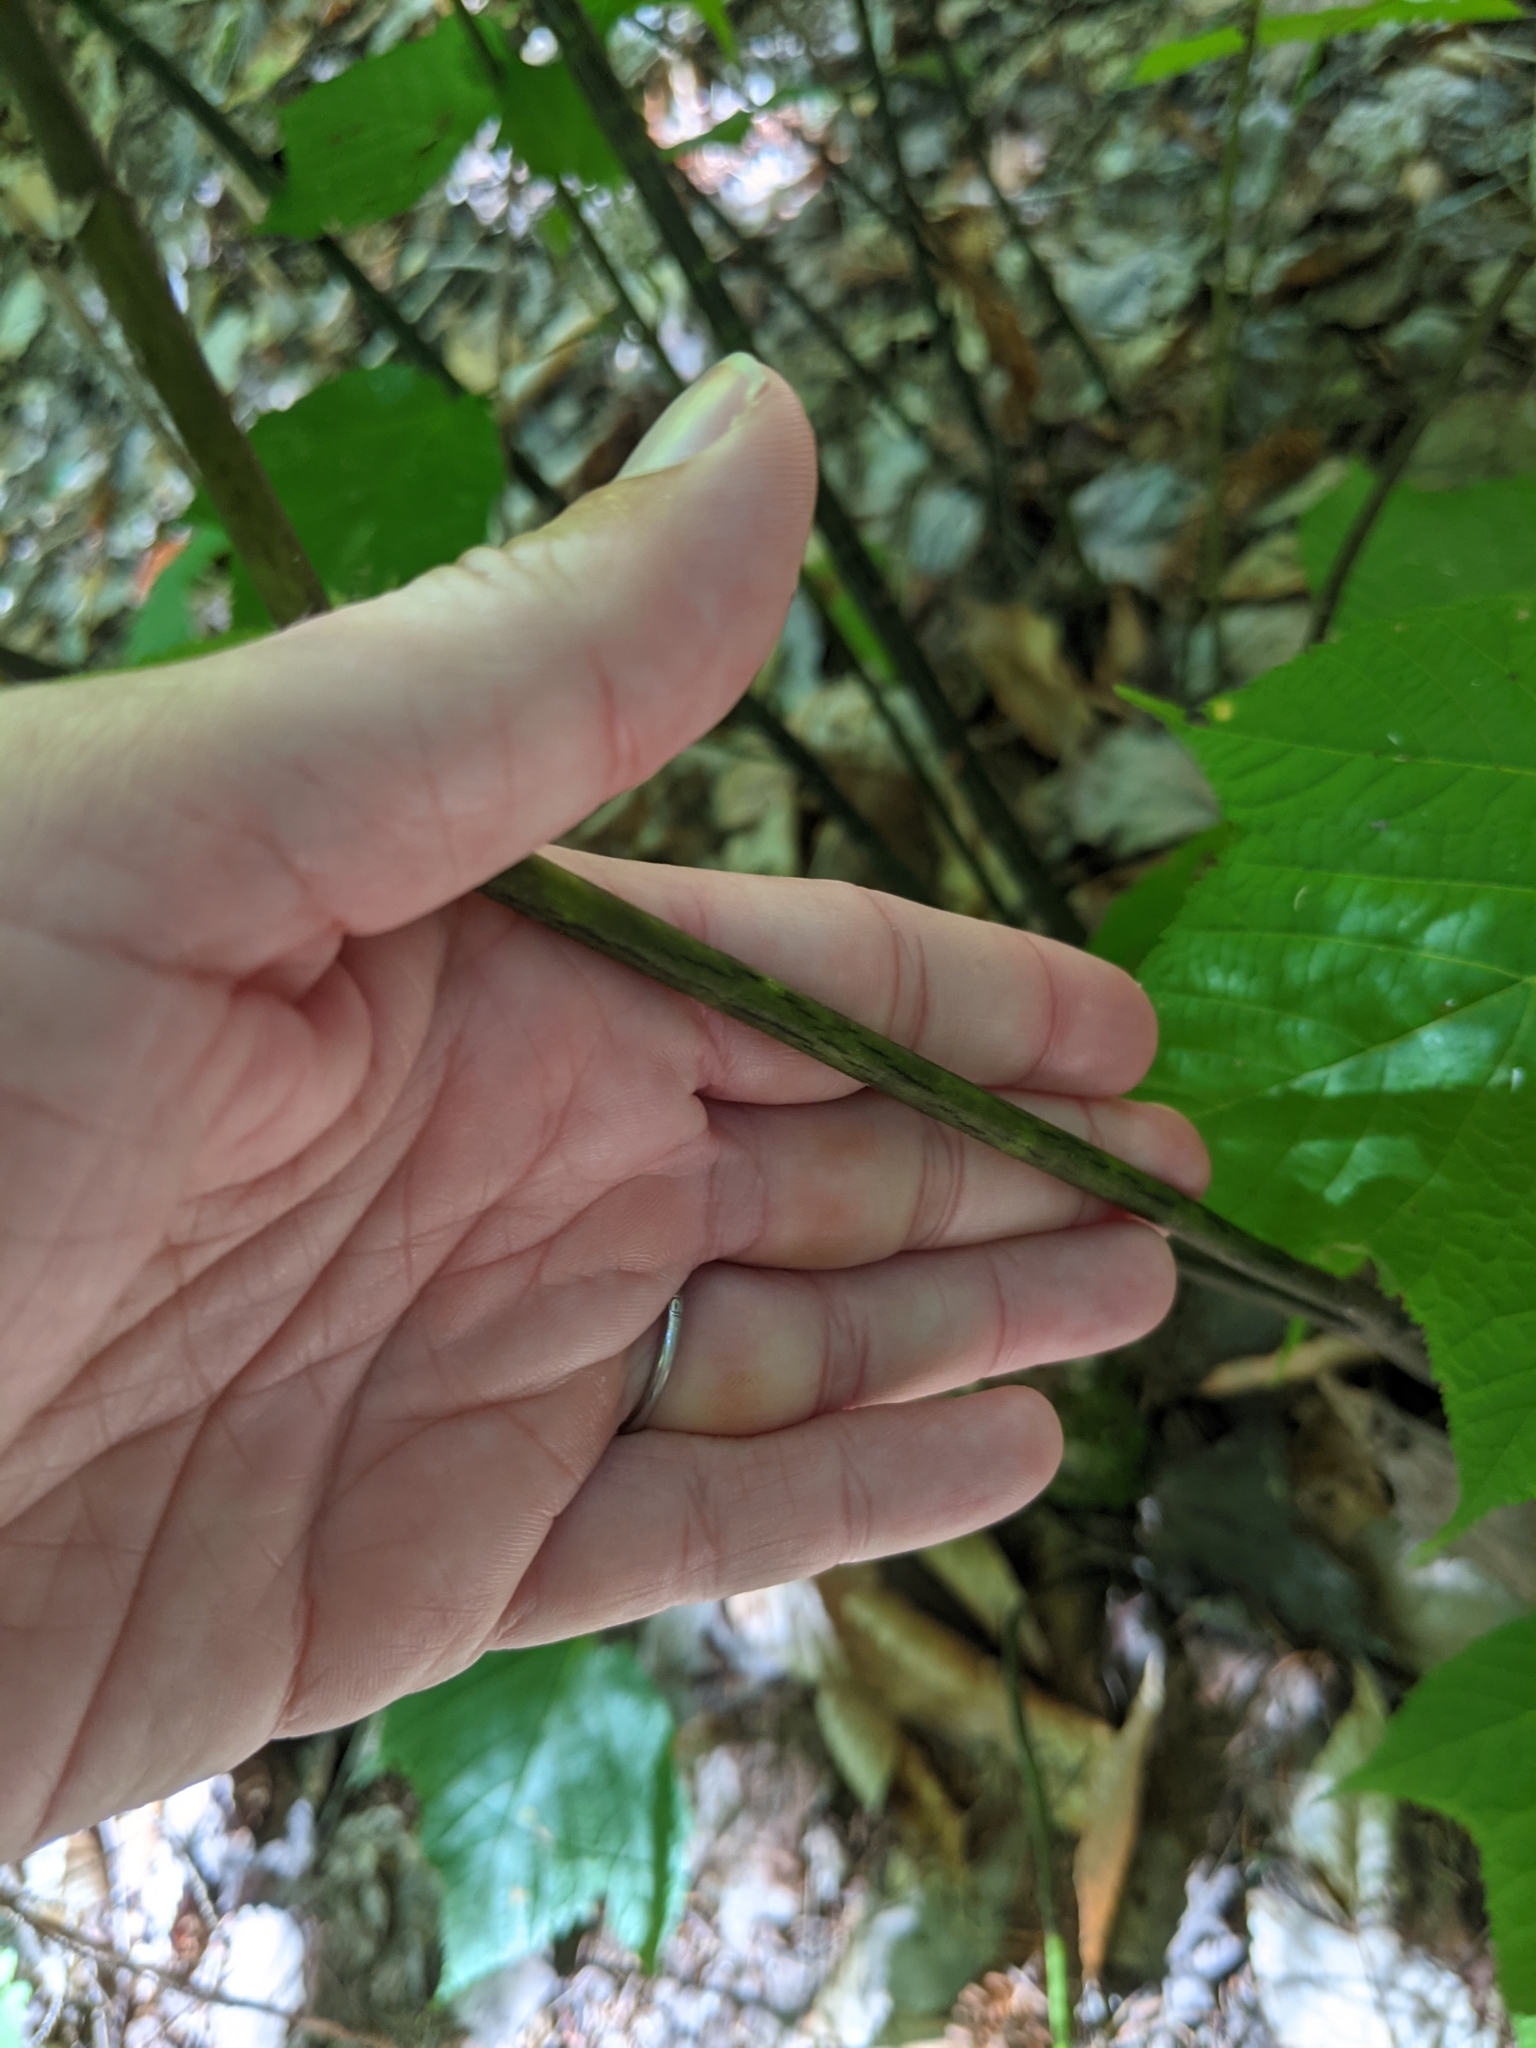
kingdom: Plantae
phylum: Tracheophyta
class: Magnoliopsida
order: Sapindales
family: Sapindaceae
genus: Acer
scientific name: Acer pensylvanicum
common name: Moosewood
